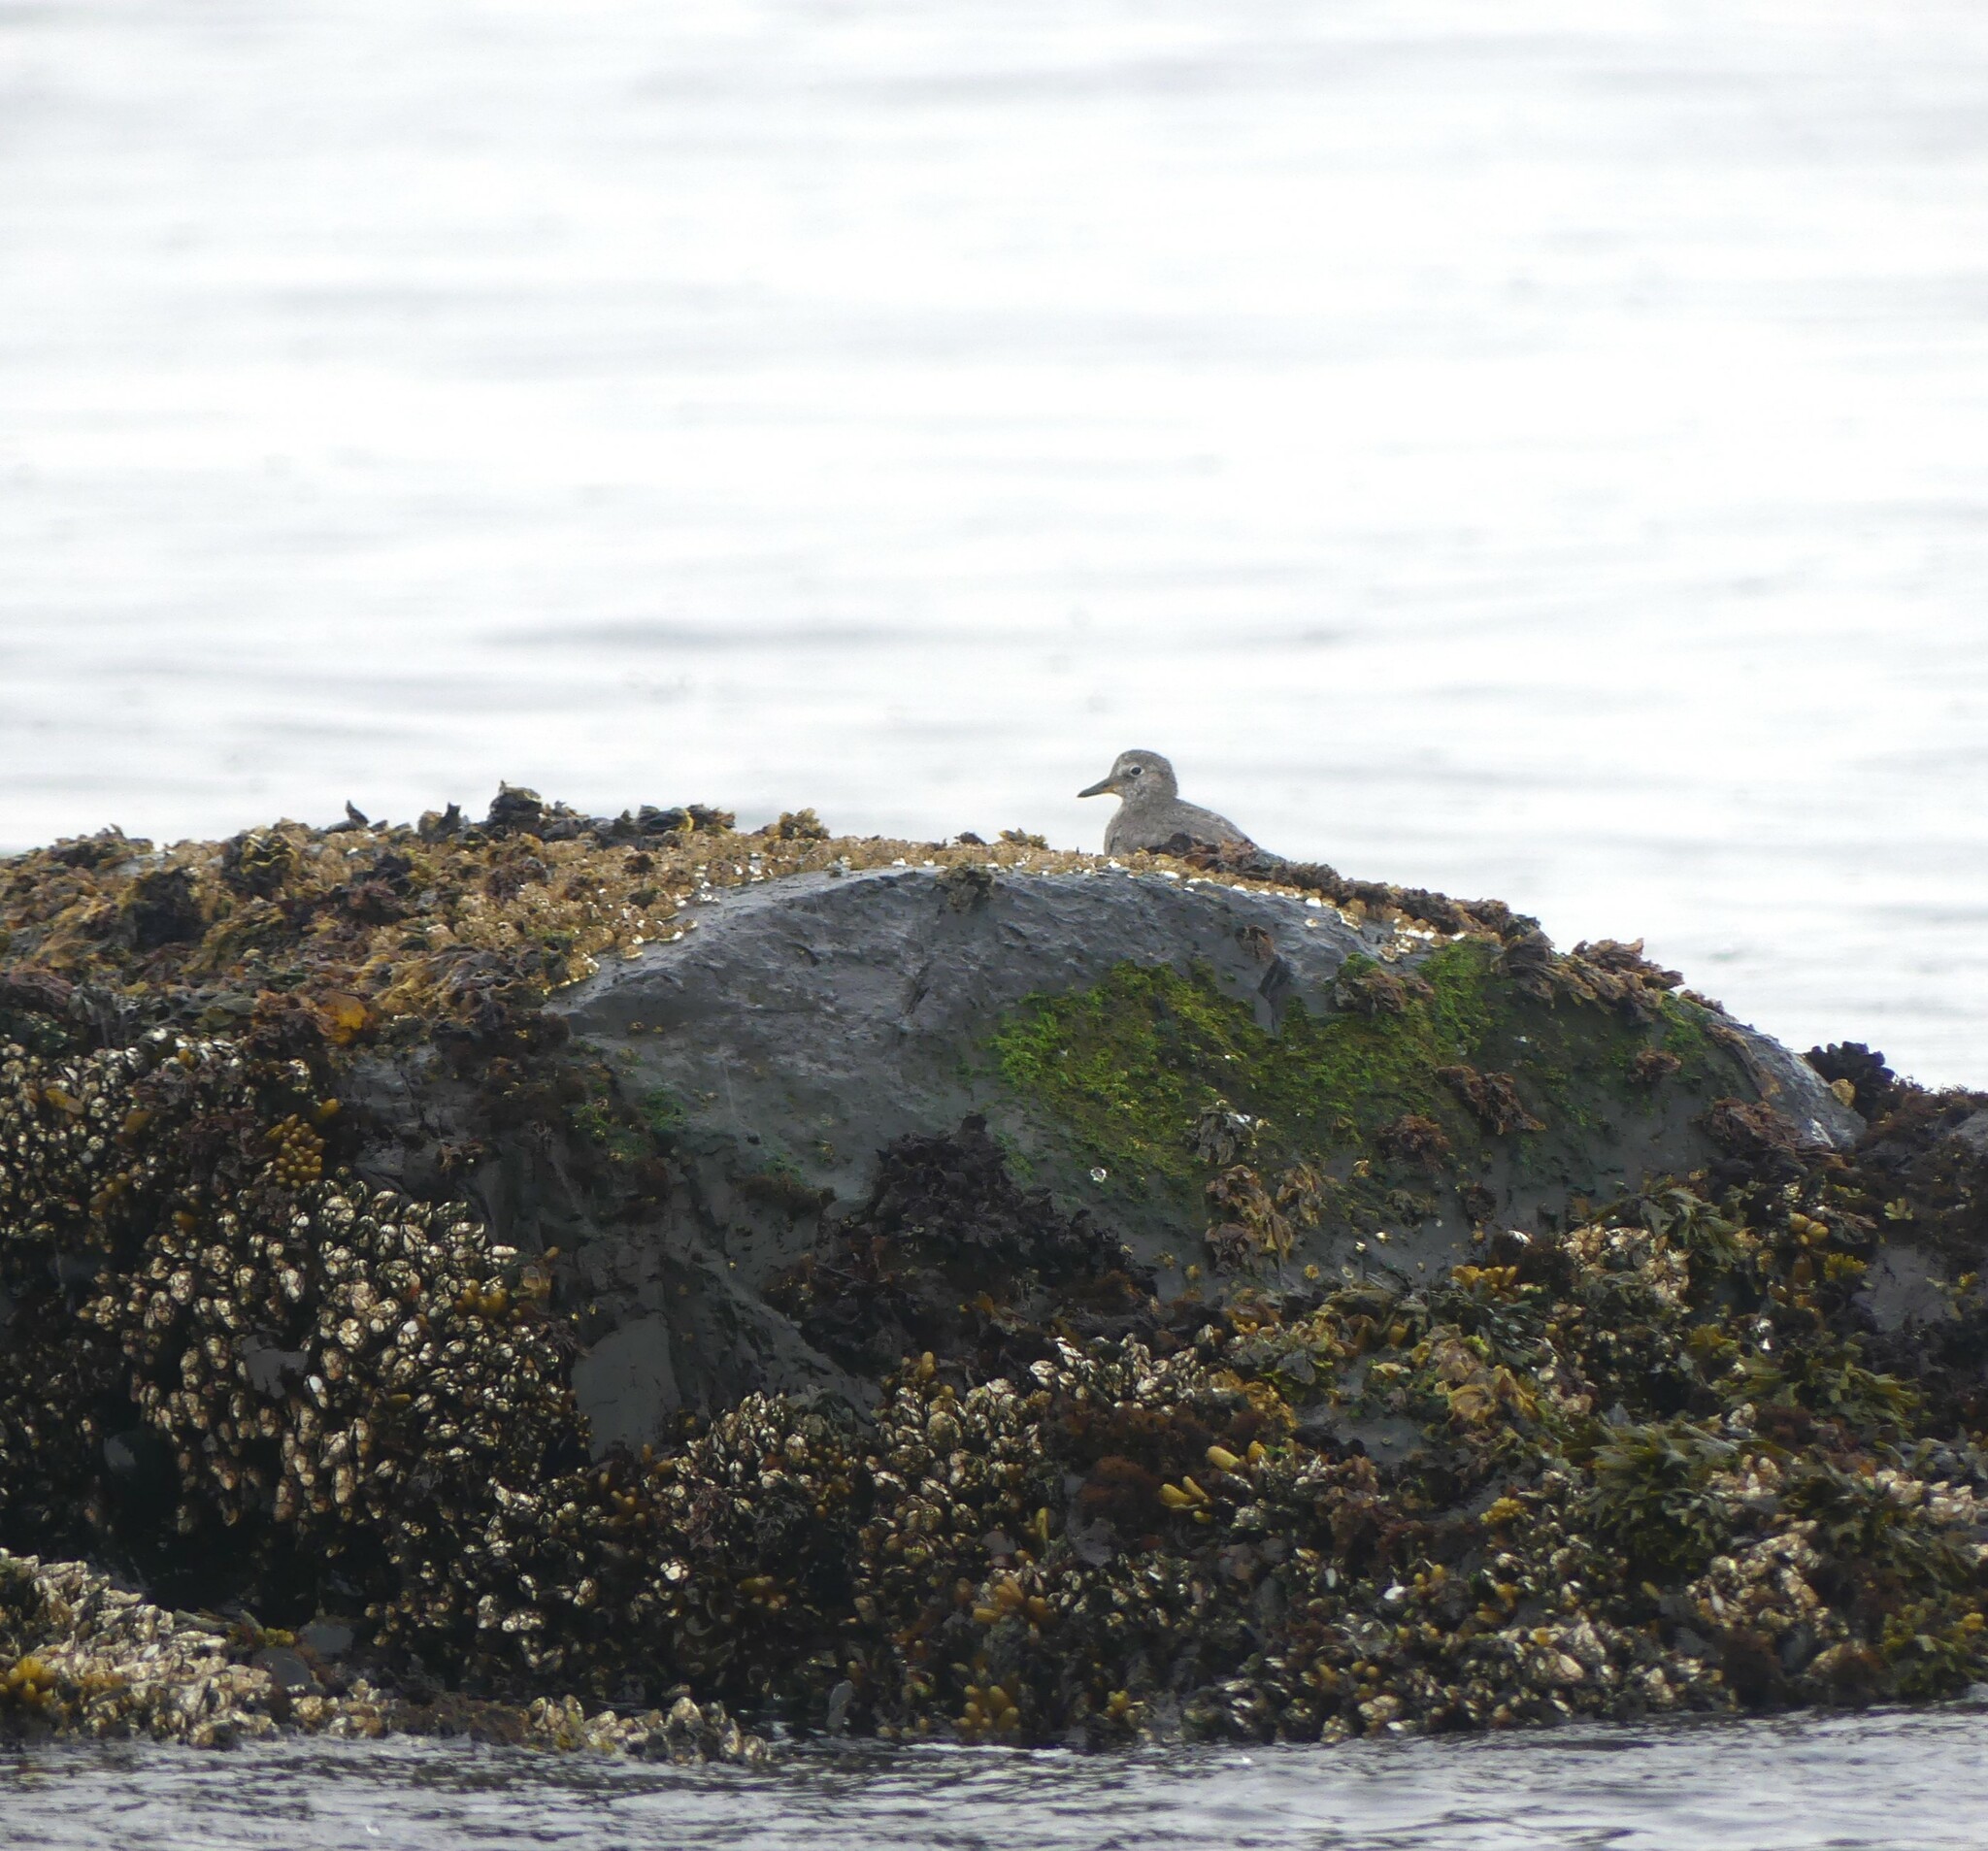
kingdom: Animalia
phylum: Chordata
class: Aves
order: Charadriiformes
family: Scolopacidae
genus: Calidris
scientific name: Calidris virgata
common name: Surfbird
